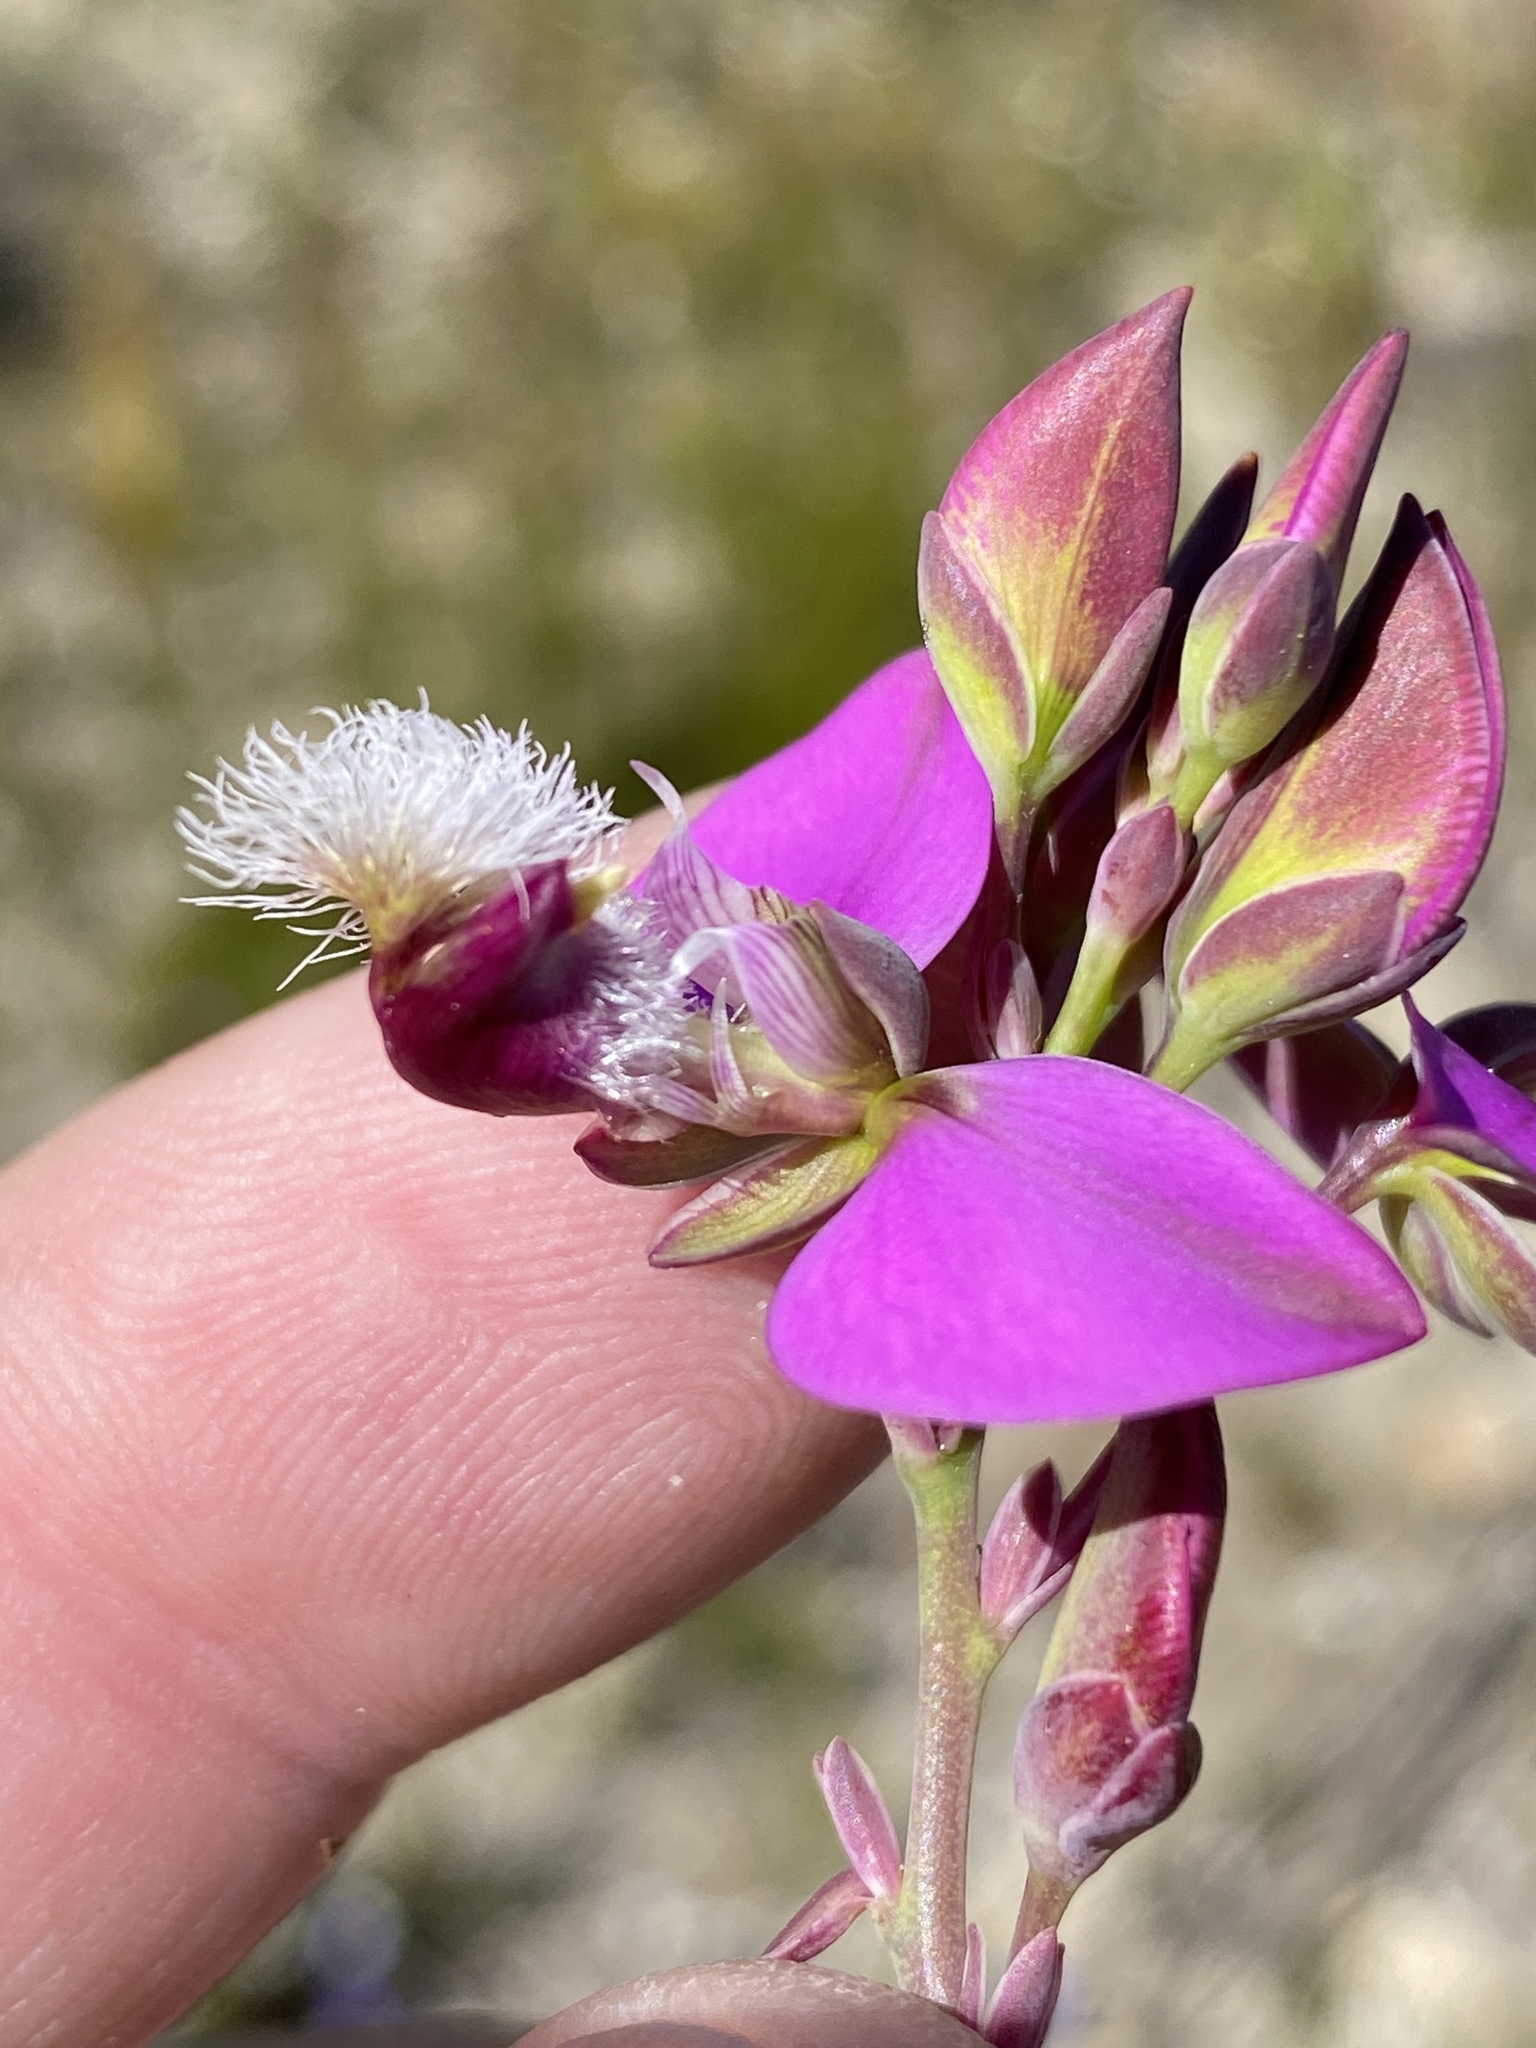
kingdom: Plantae
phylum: Tracheophyta
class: Magnoliopsida
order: Fabales
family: Polygalaceae
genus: Polygala
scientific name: Polygala bracteolata
